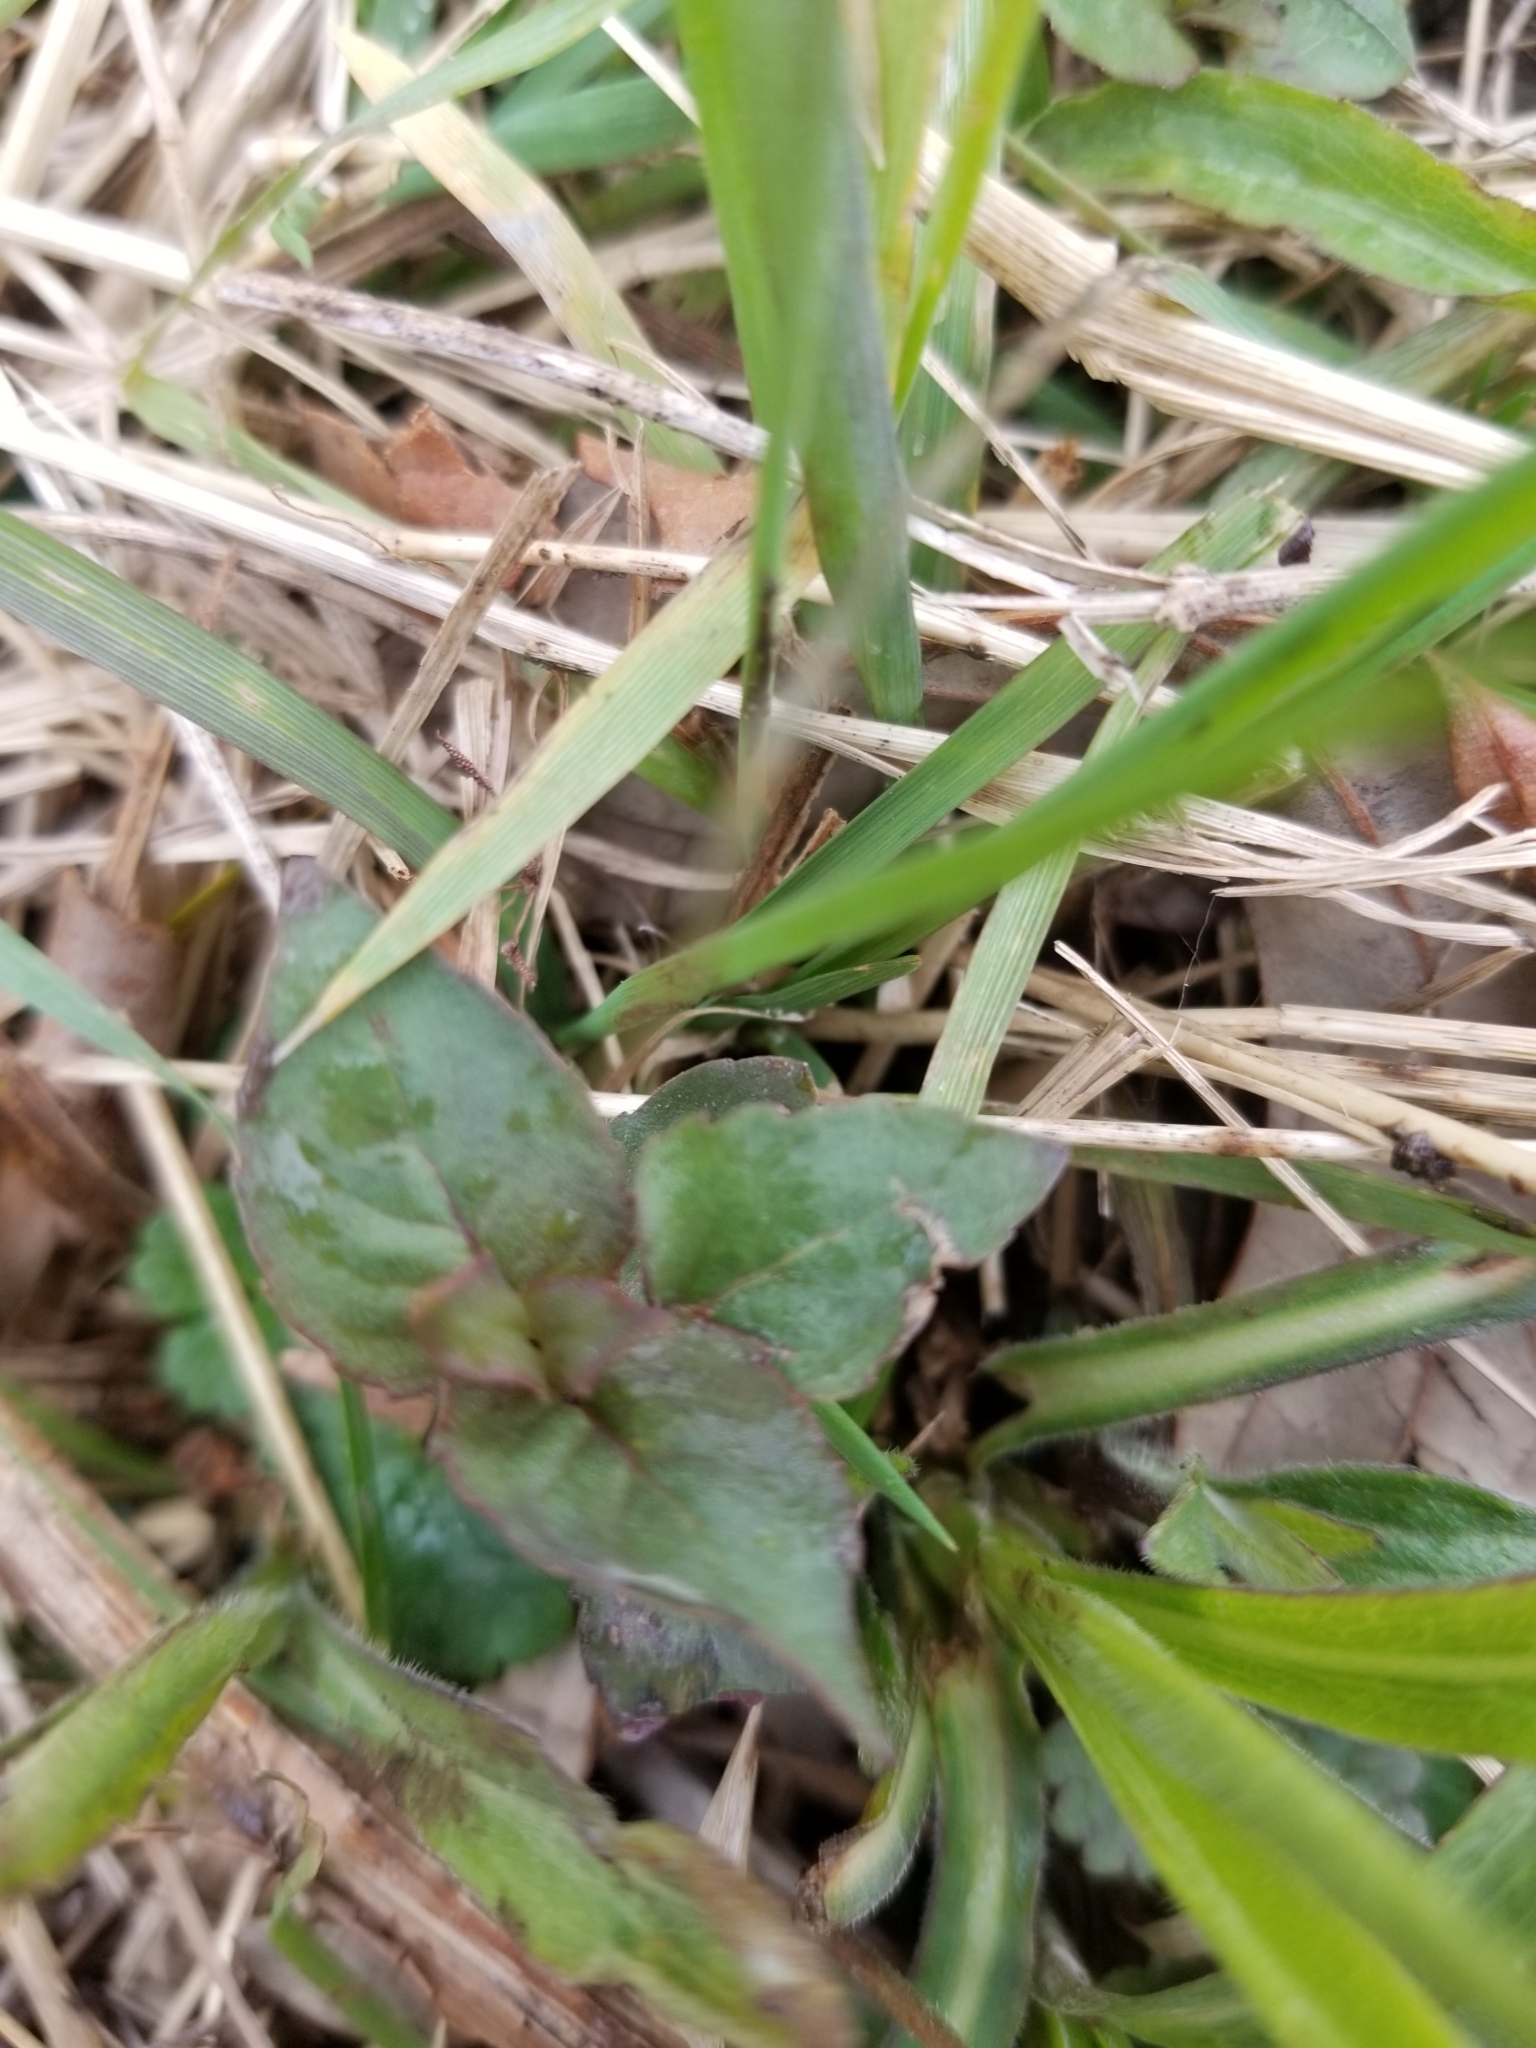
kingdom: Plantae
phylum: Tracheophyta
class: Magnoliopsida
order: Lamiales
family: Lamiaceae
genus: Monarda
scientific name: Monarda fistulosa
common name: Purple beebalm
